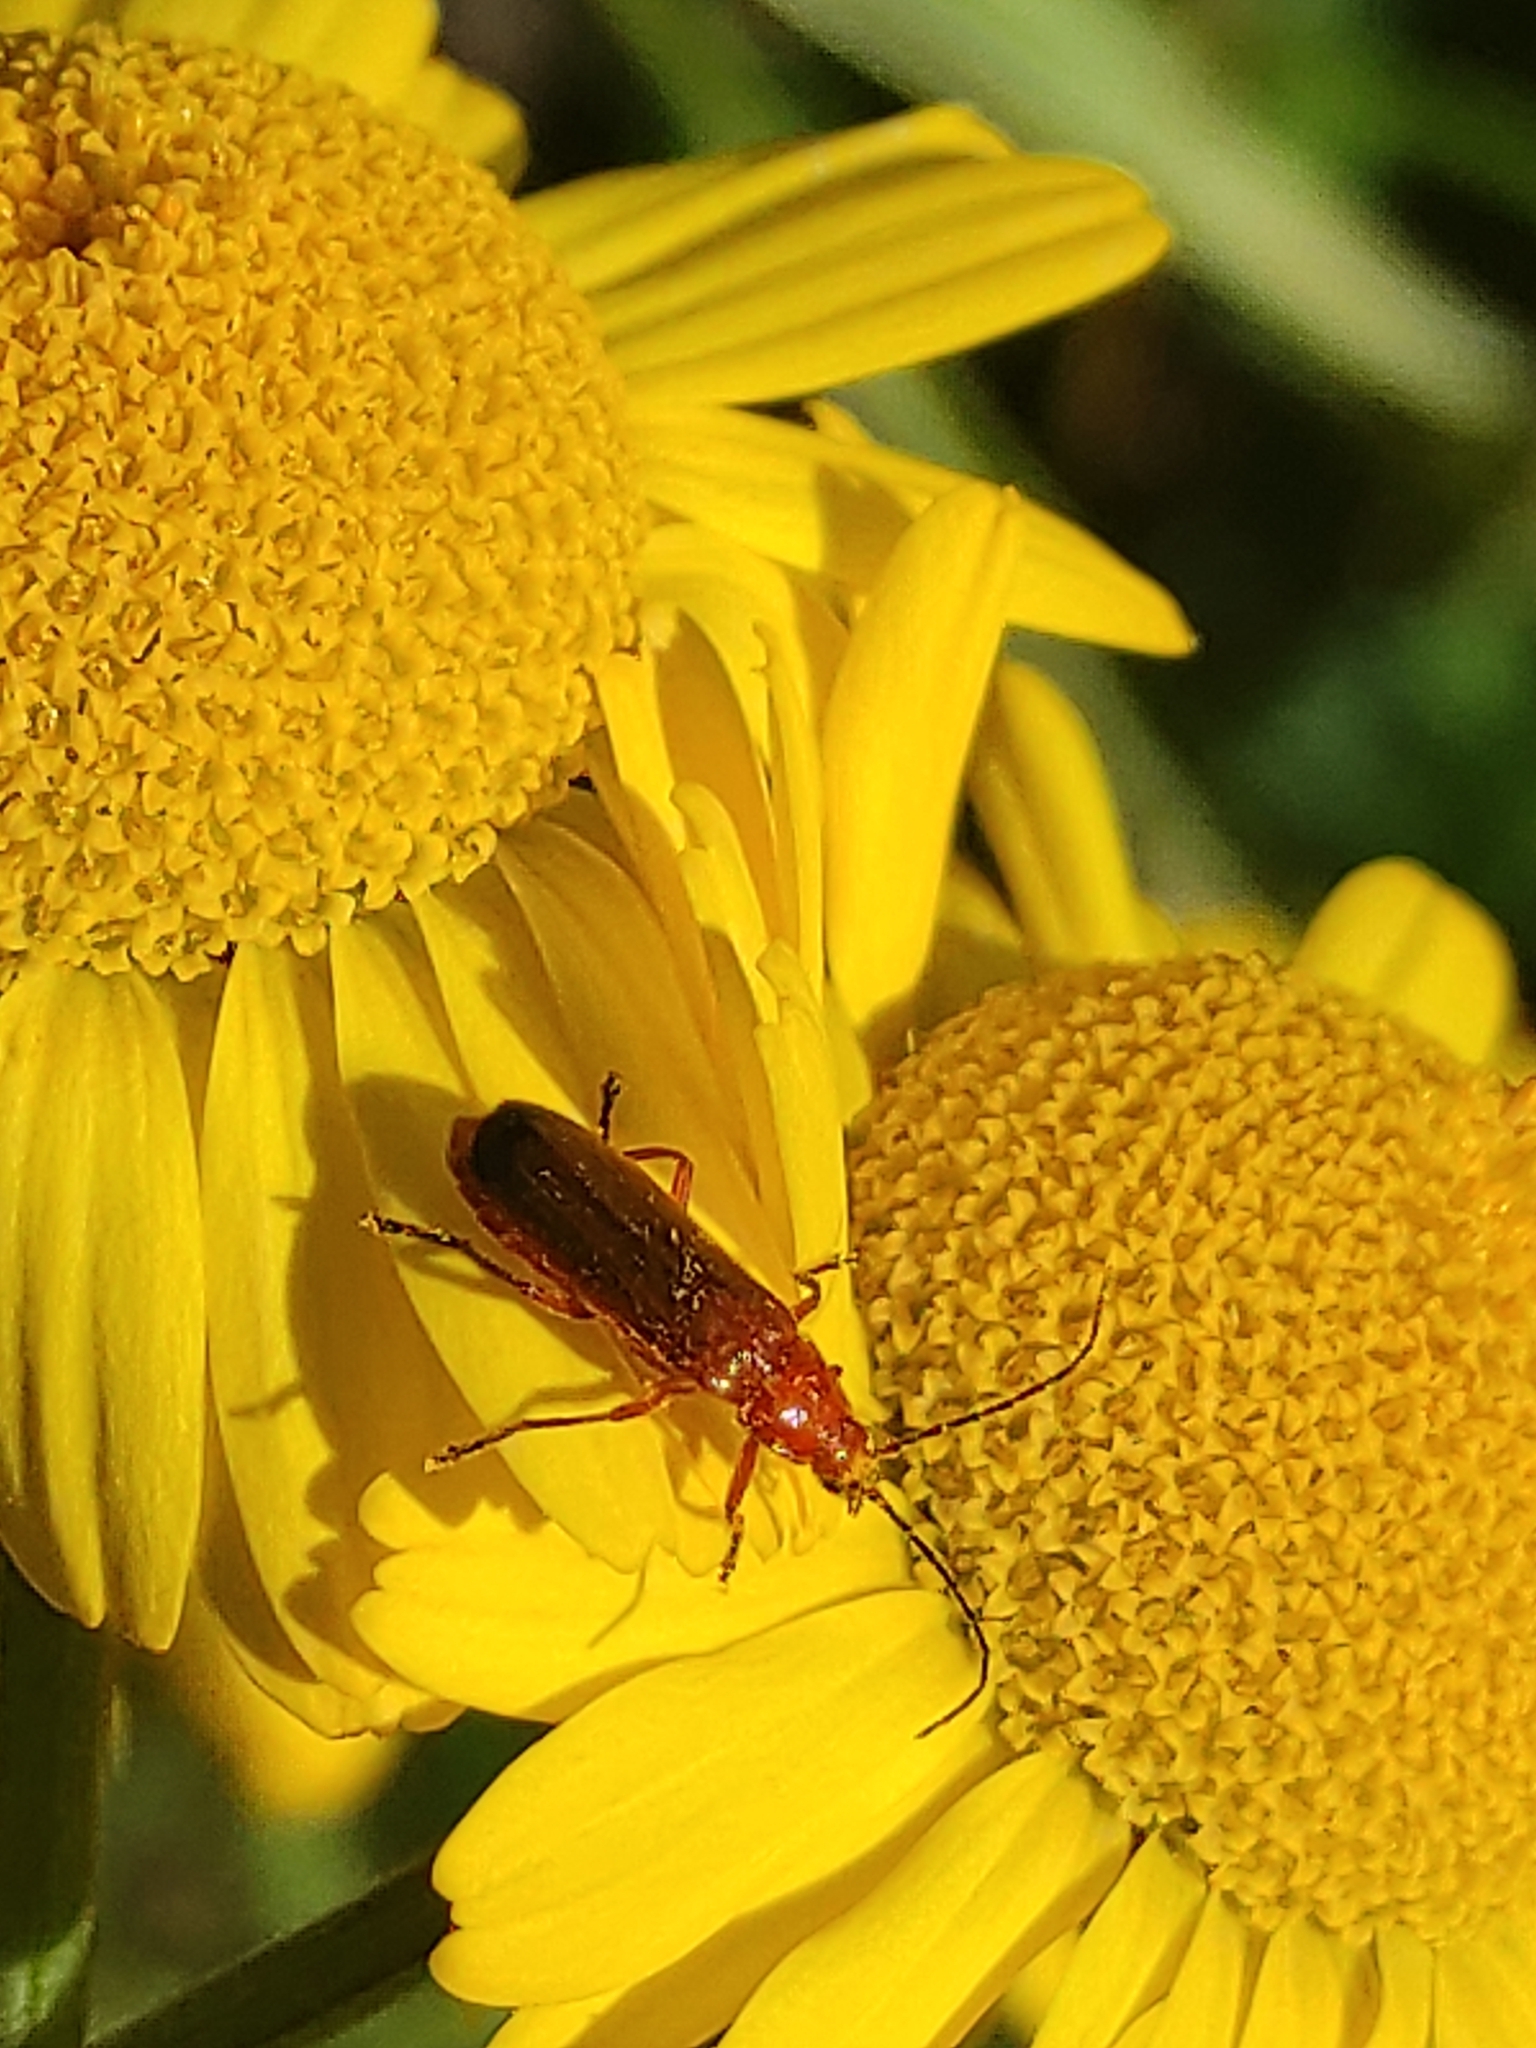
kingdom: Animalia
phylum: Arthropoda
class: Insecta
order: Coleoptera
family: Cantharidae
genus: Rhagonycha
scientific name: Rhagonycha fulva
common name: Common red soldier beetle
